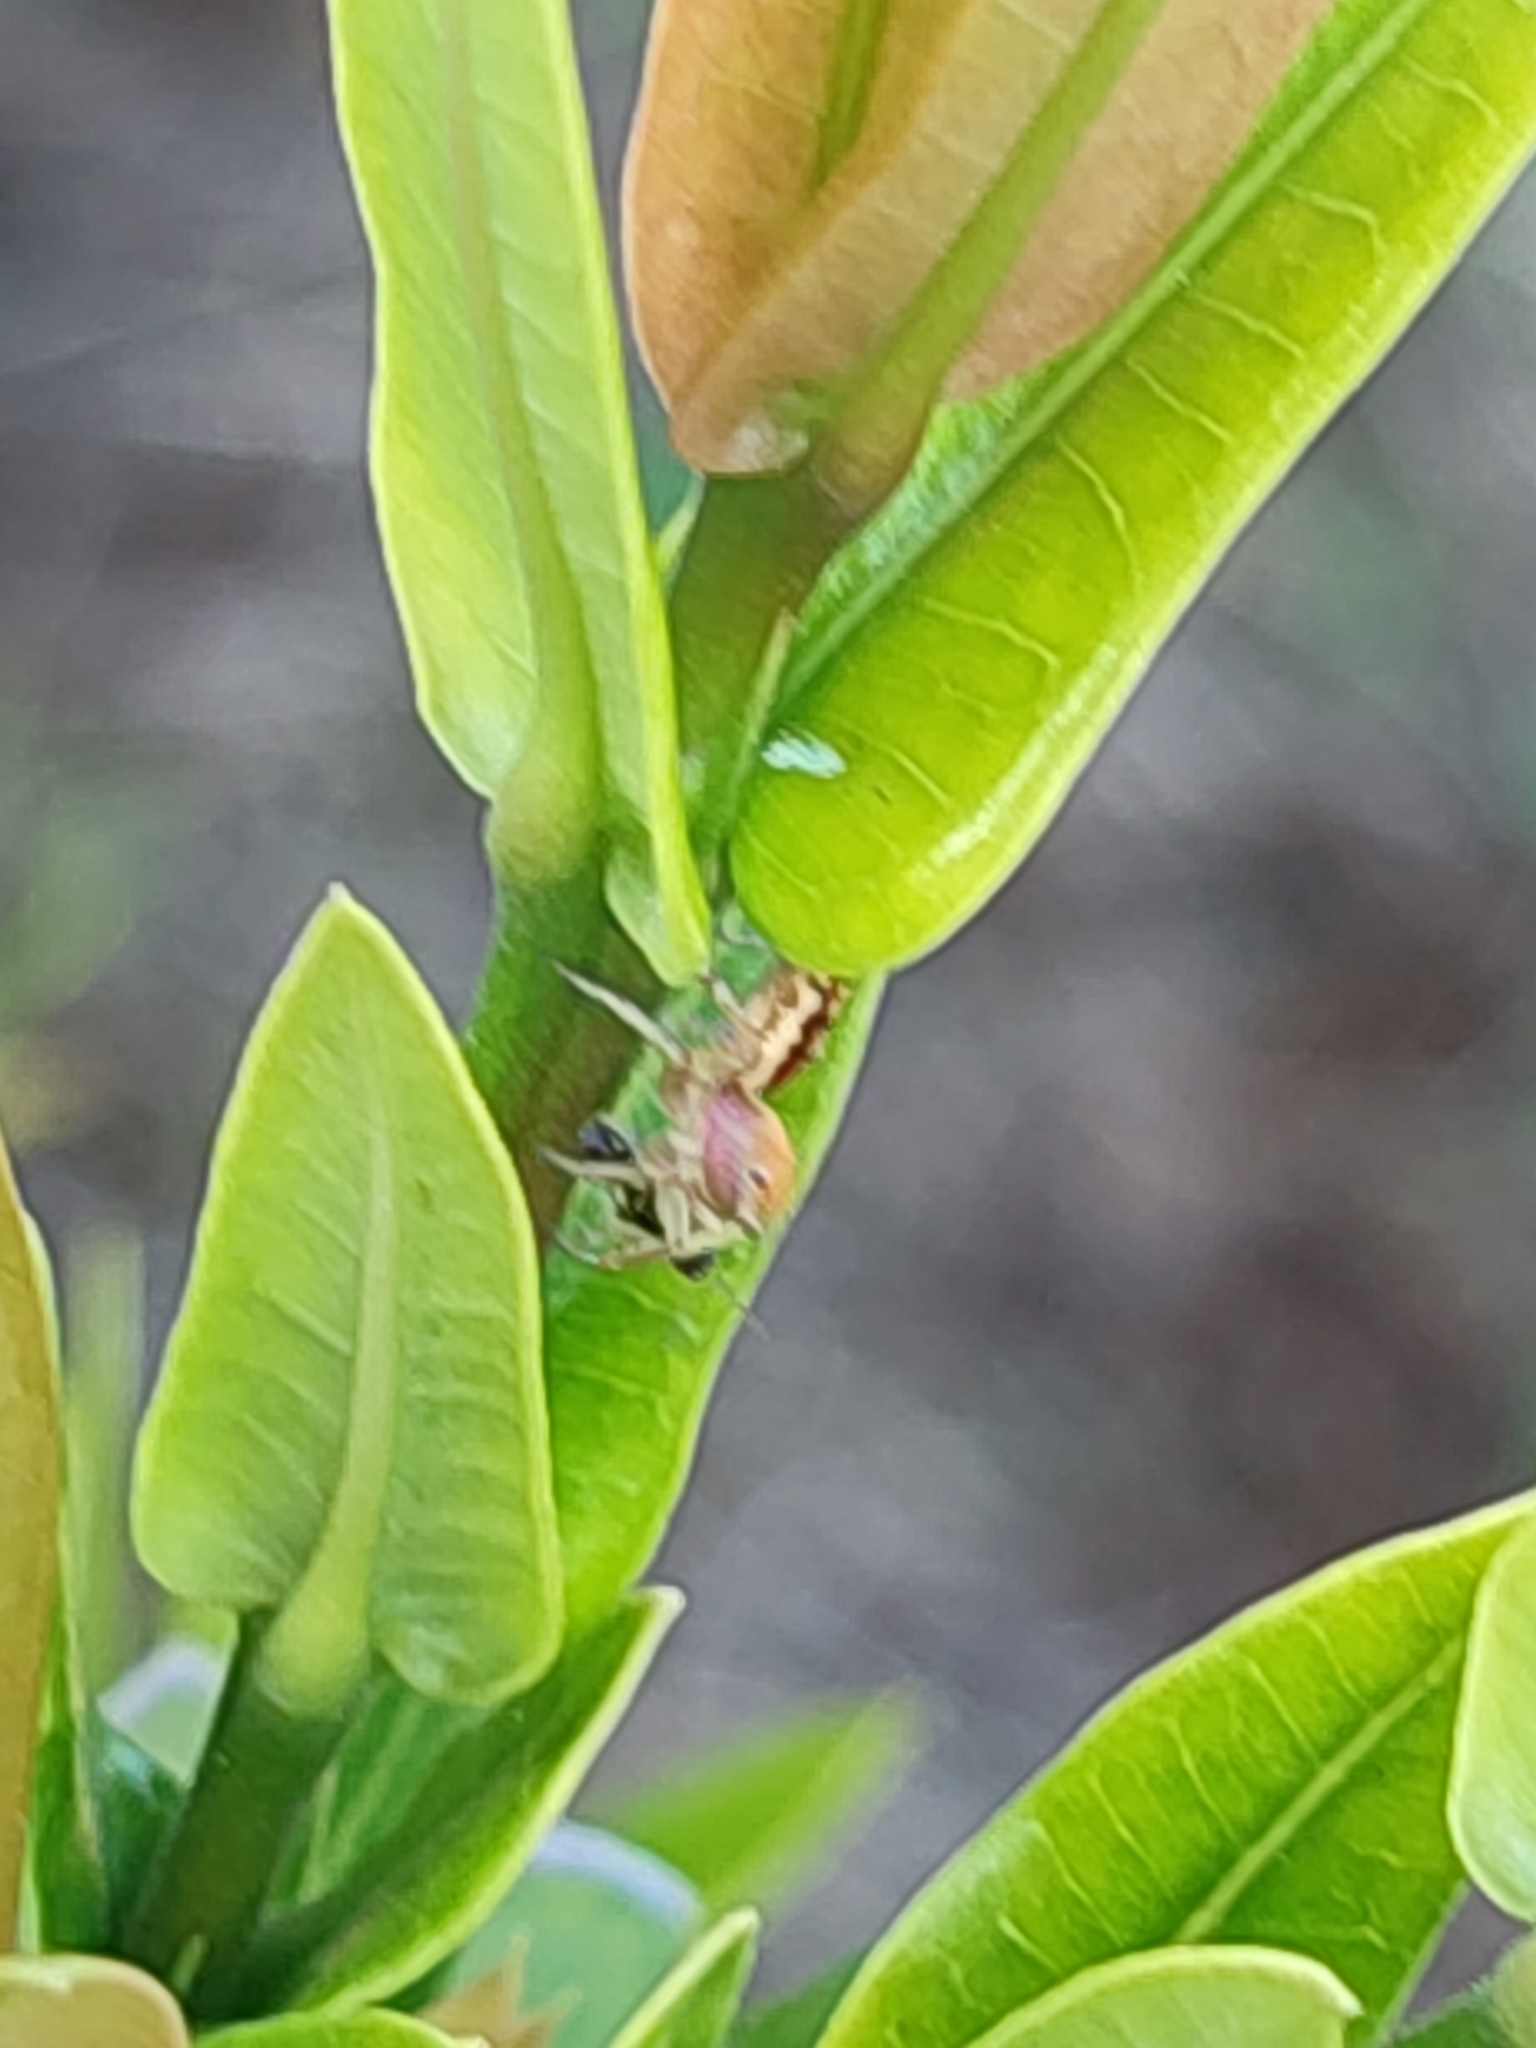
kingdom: Animalia
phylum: Arthropoda
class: Arachnida
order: Araneae
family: Salticidae
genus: Cosmophasis
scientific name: Cosmophasis lami
